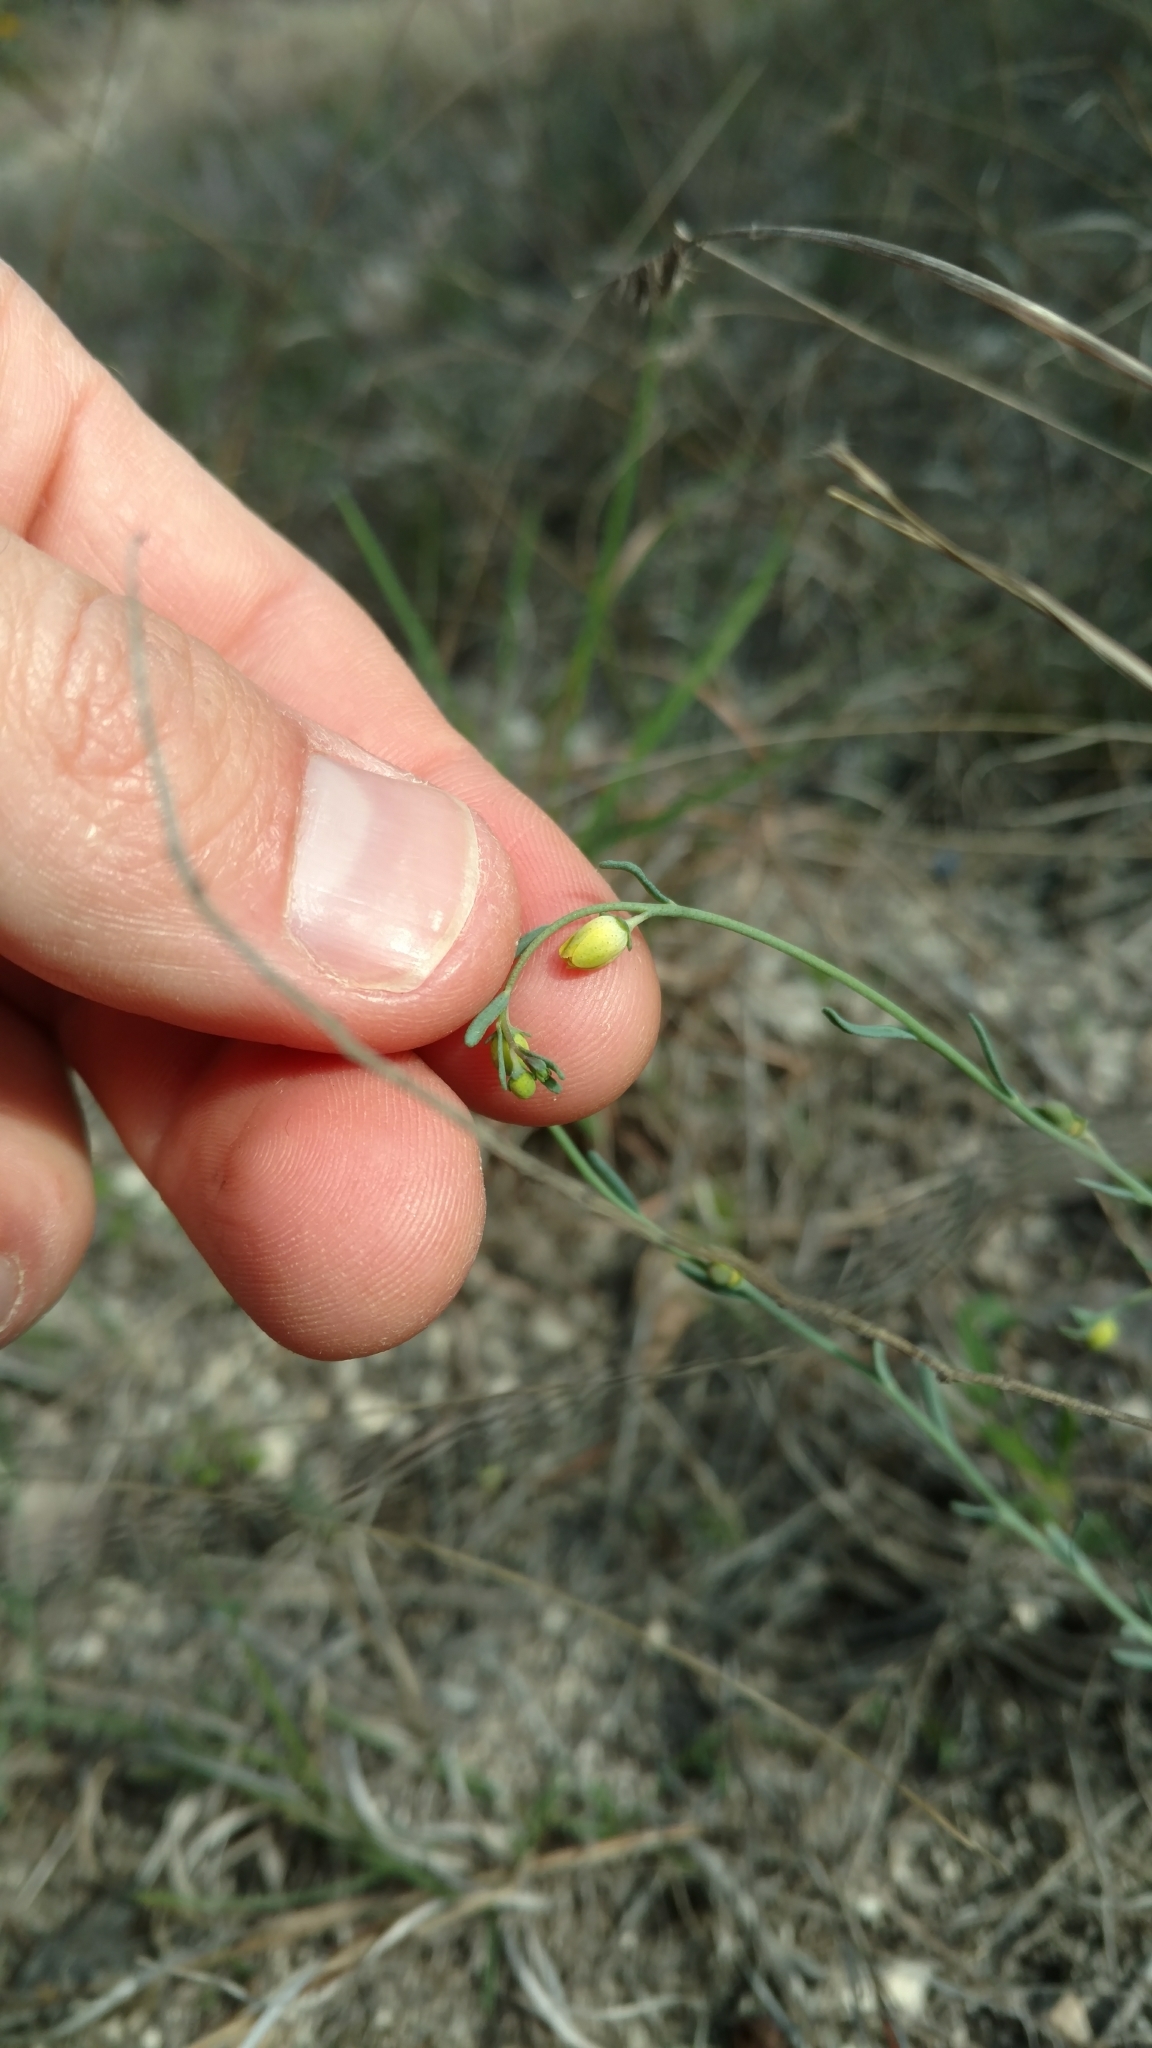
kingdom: Plantae
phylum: Tracheophyta
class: Magnoliopsida
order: Sapindales
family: Rutaceae
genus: Thamnosma
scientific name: Thamnosma texana
